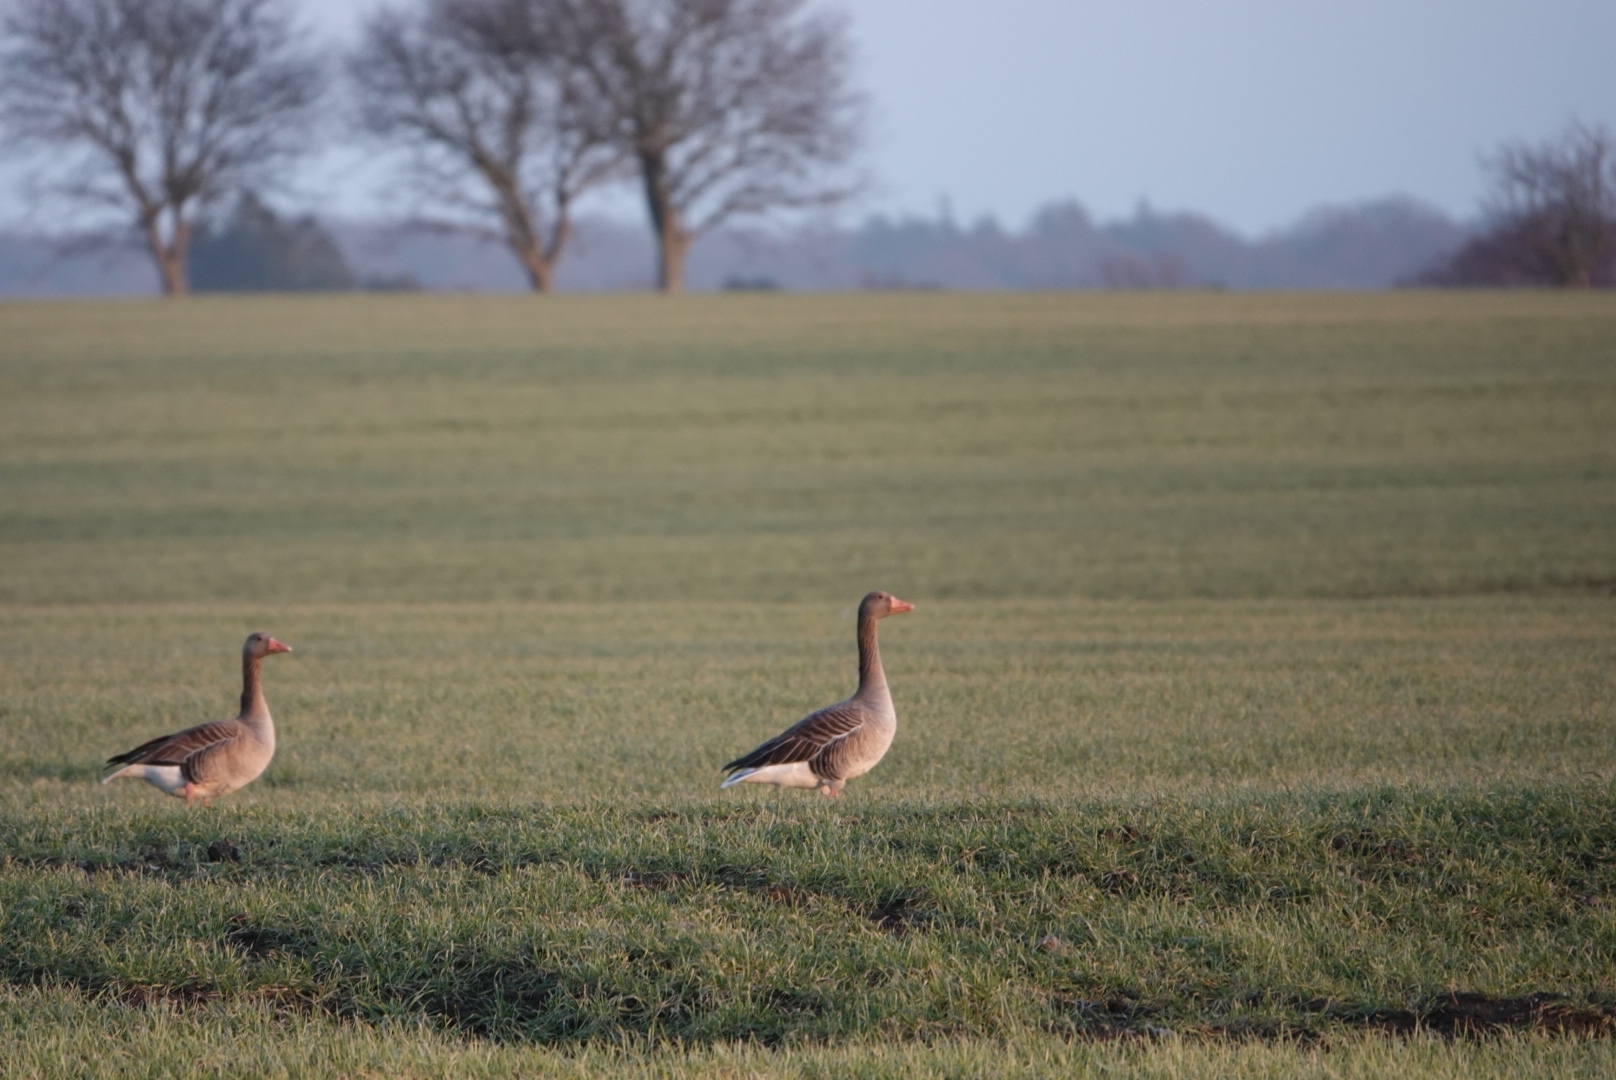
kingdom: Animalia
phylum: Chordata
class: Aves
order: Anseriformes
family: Anatidae
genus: Anser
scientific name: Anser anser
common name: Greylag goose
